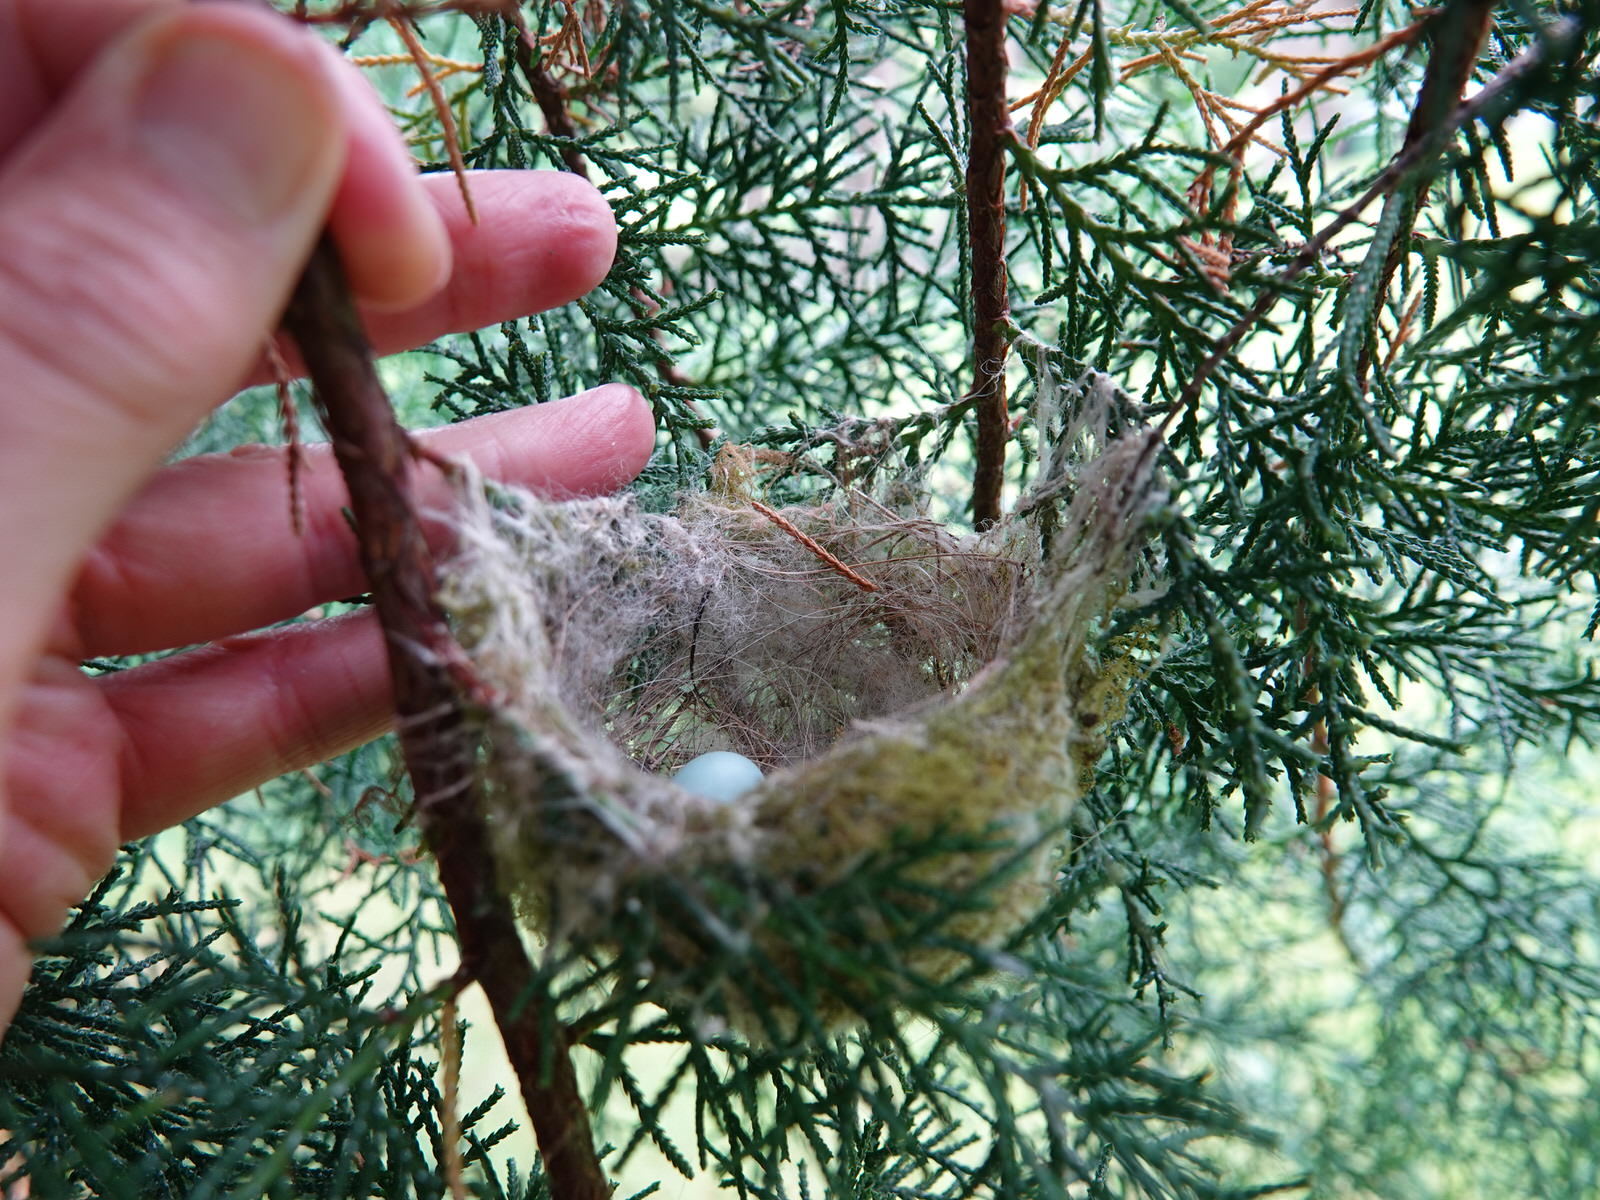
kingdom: Animalia
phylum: Chordata
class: Aves
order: Passeriformes
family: Zosteropidae
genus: Zosterops
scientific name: Zosterops lateralis
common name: Silvereye
